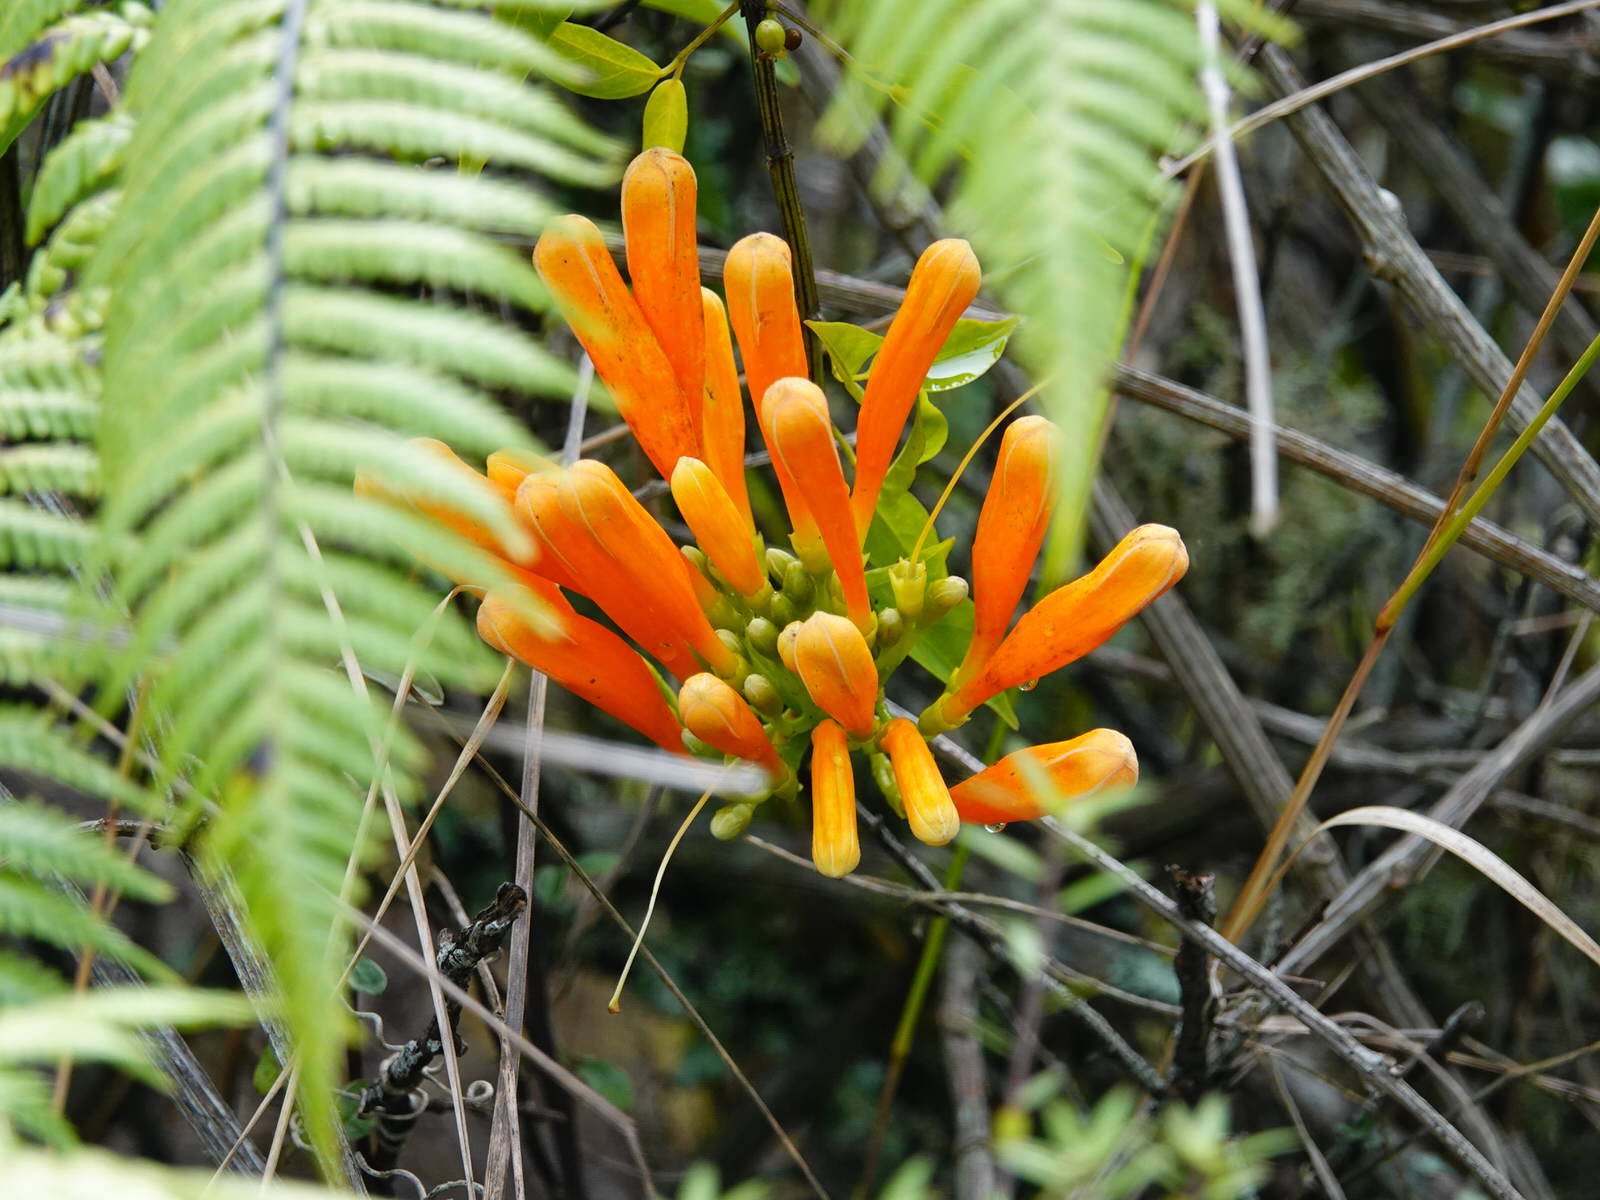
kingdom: Plantae
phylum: Tracheophyta
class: Magnoliopsida
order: Lamiales
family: Bignoniaceae
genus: Pyrostegia
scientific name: Pyrostegia venusta
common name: Flamevine
